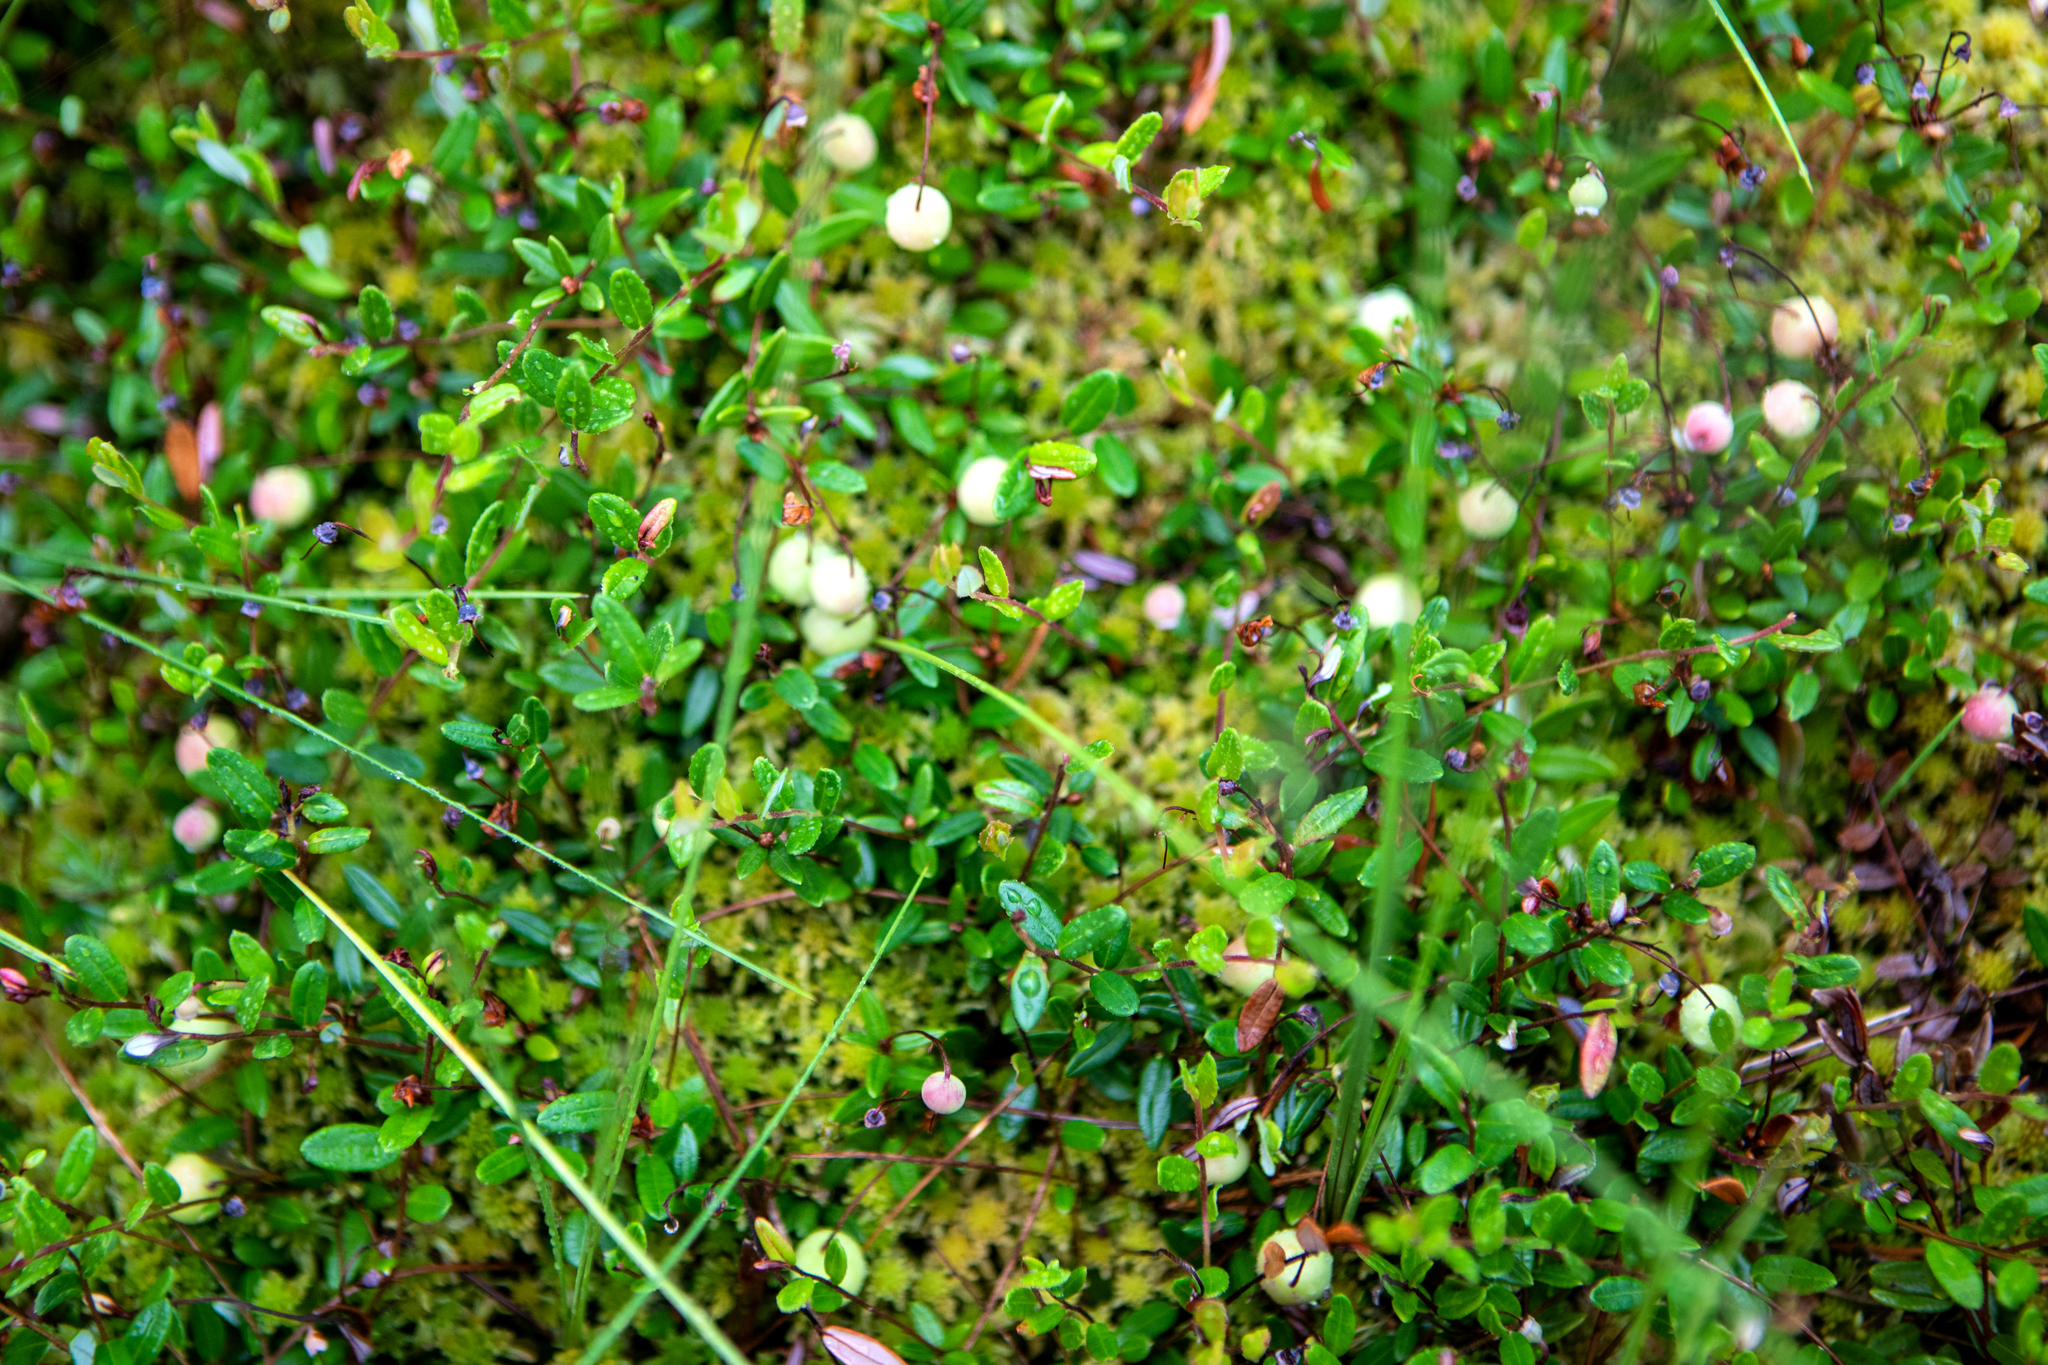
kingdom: Plantae
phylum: Tracheophyta
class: Magnoliopsida
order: Ericales
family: Ericaceae
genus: Vaccinium
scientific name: Vaccinium oxycoccos
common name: Cranberry
